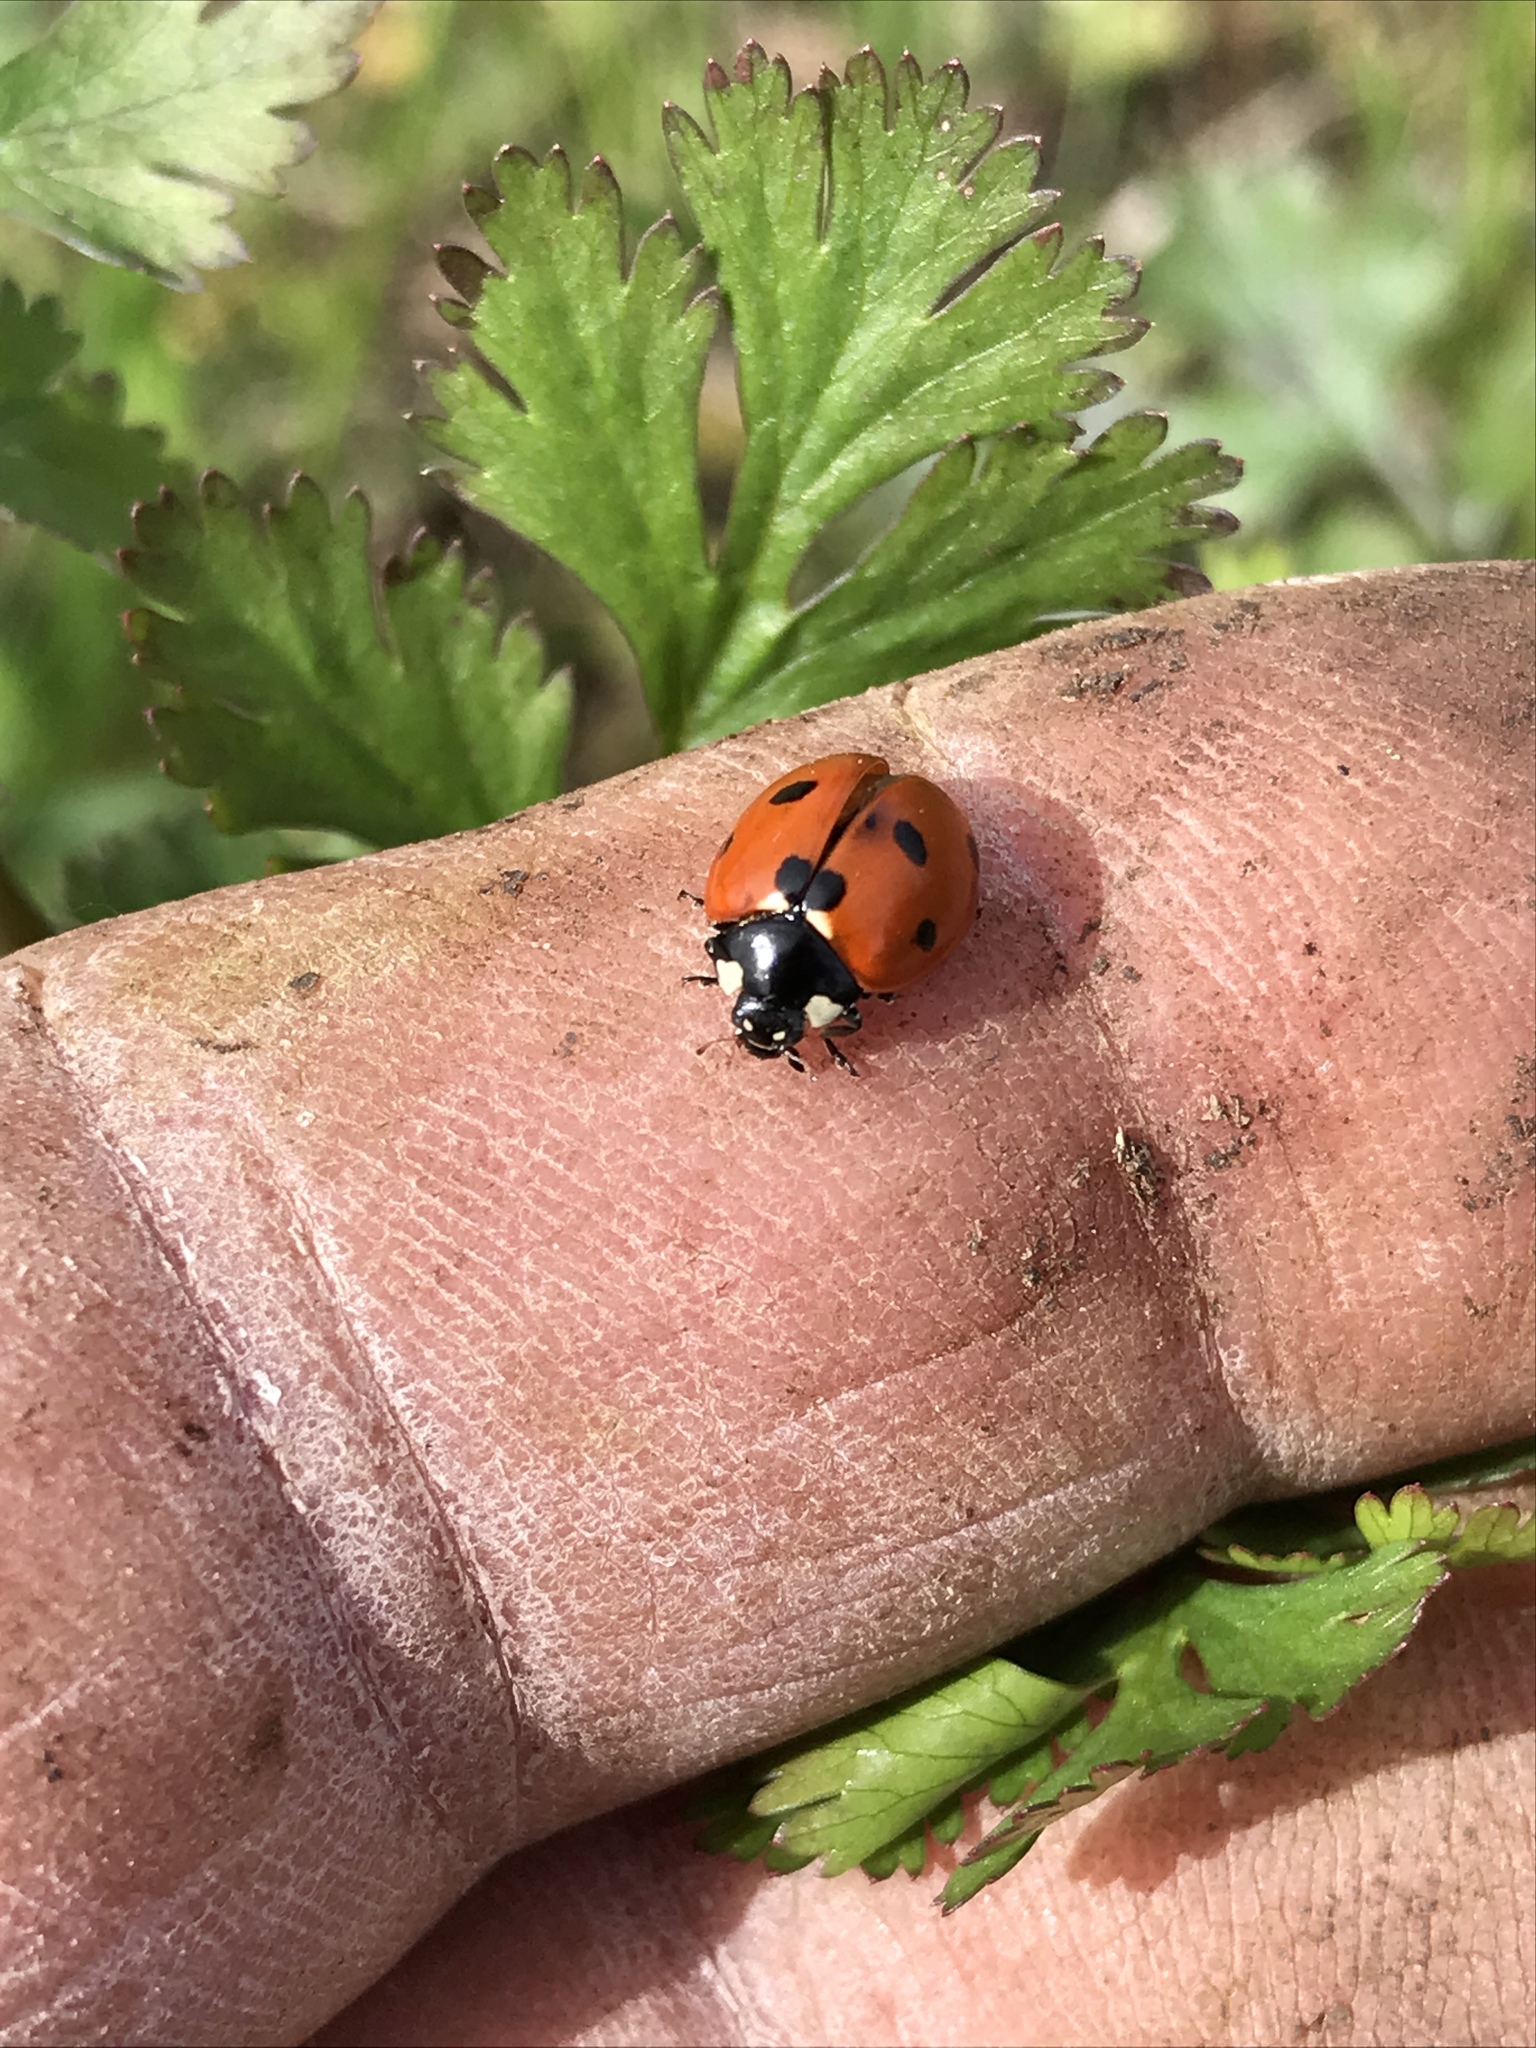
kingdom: Animalia
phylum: Arthropoda
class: Insecta
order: Coleoptera
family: Coccinellidae
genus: Coccinella
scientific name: Coccinella septempunctata
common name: Sevenspotted lady beetle
